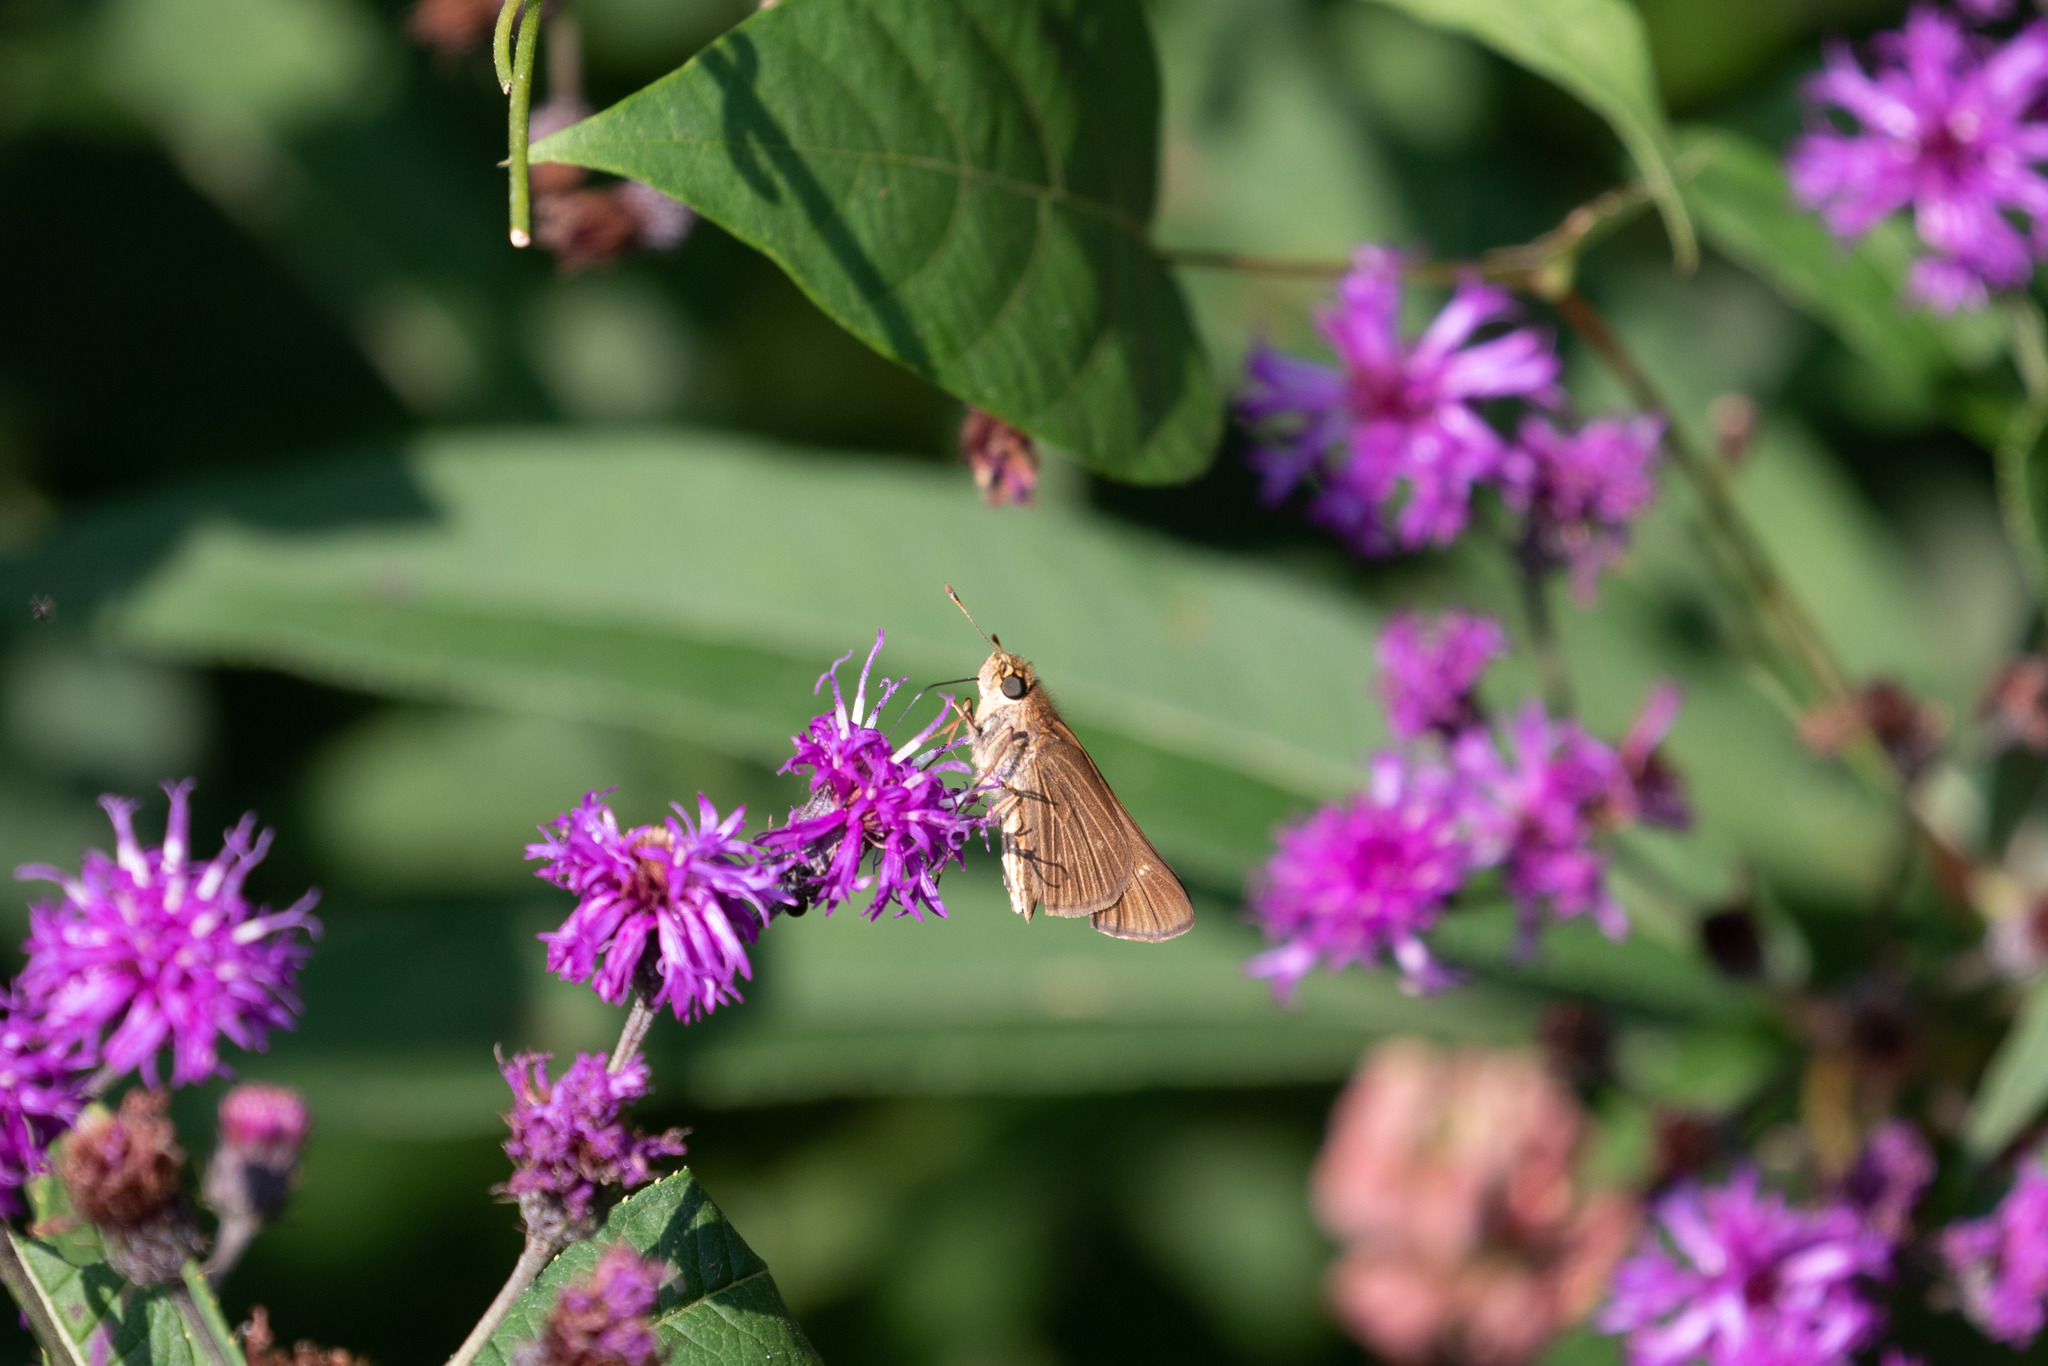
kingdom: Animalia
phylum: Arthropoda
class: Insecta
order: Lepidoptera
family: Hesperiidae
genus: Panoquina
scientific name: Panoquina ocola
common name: Ocola skipper
